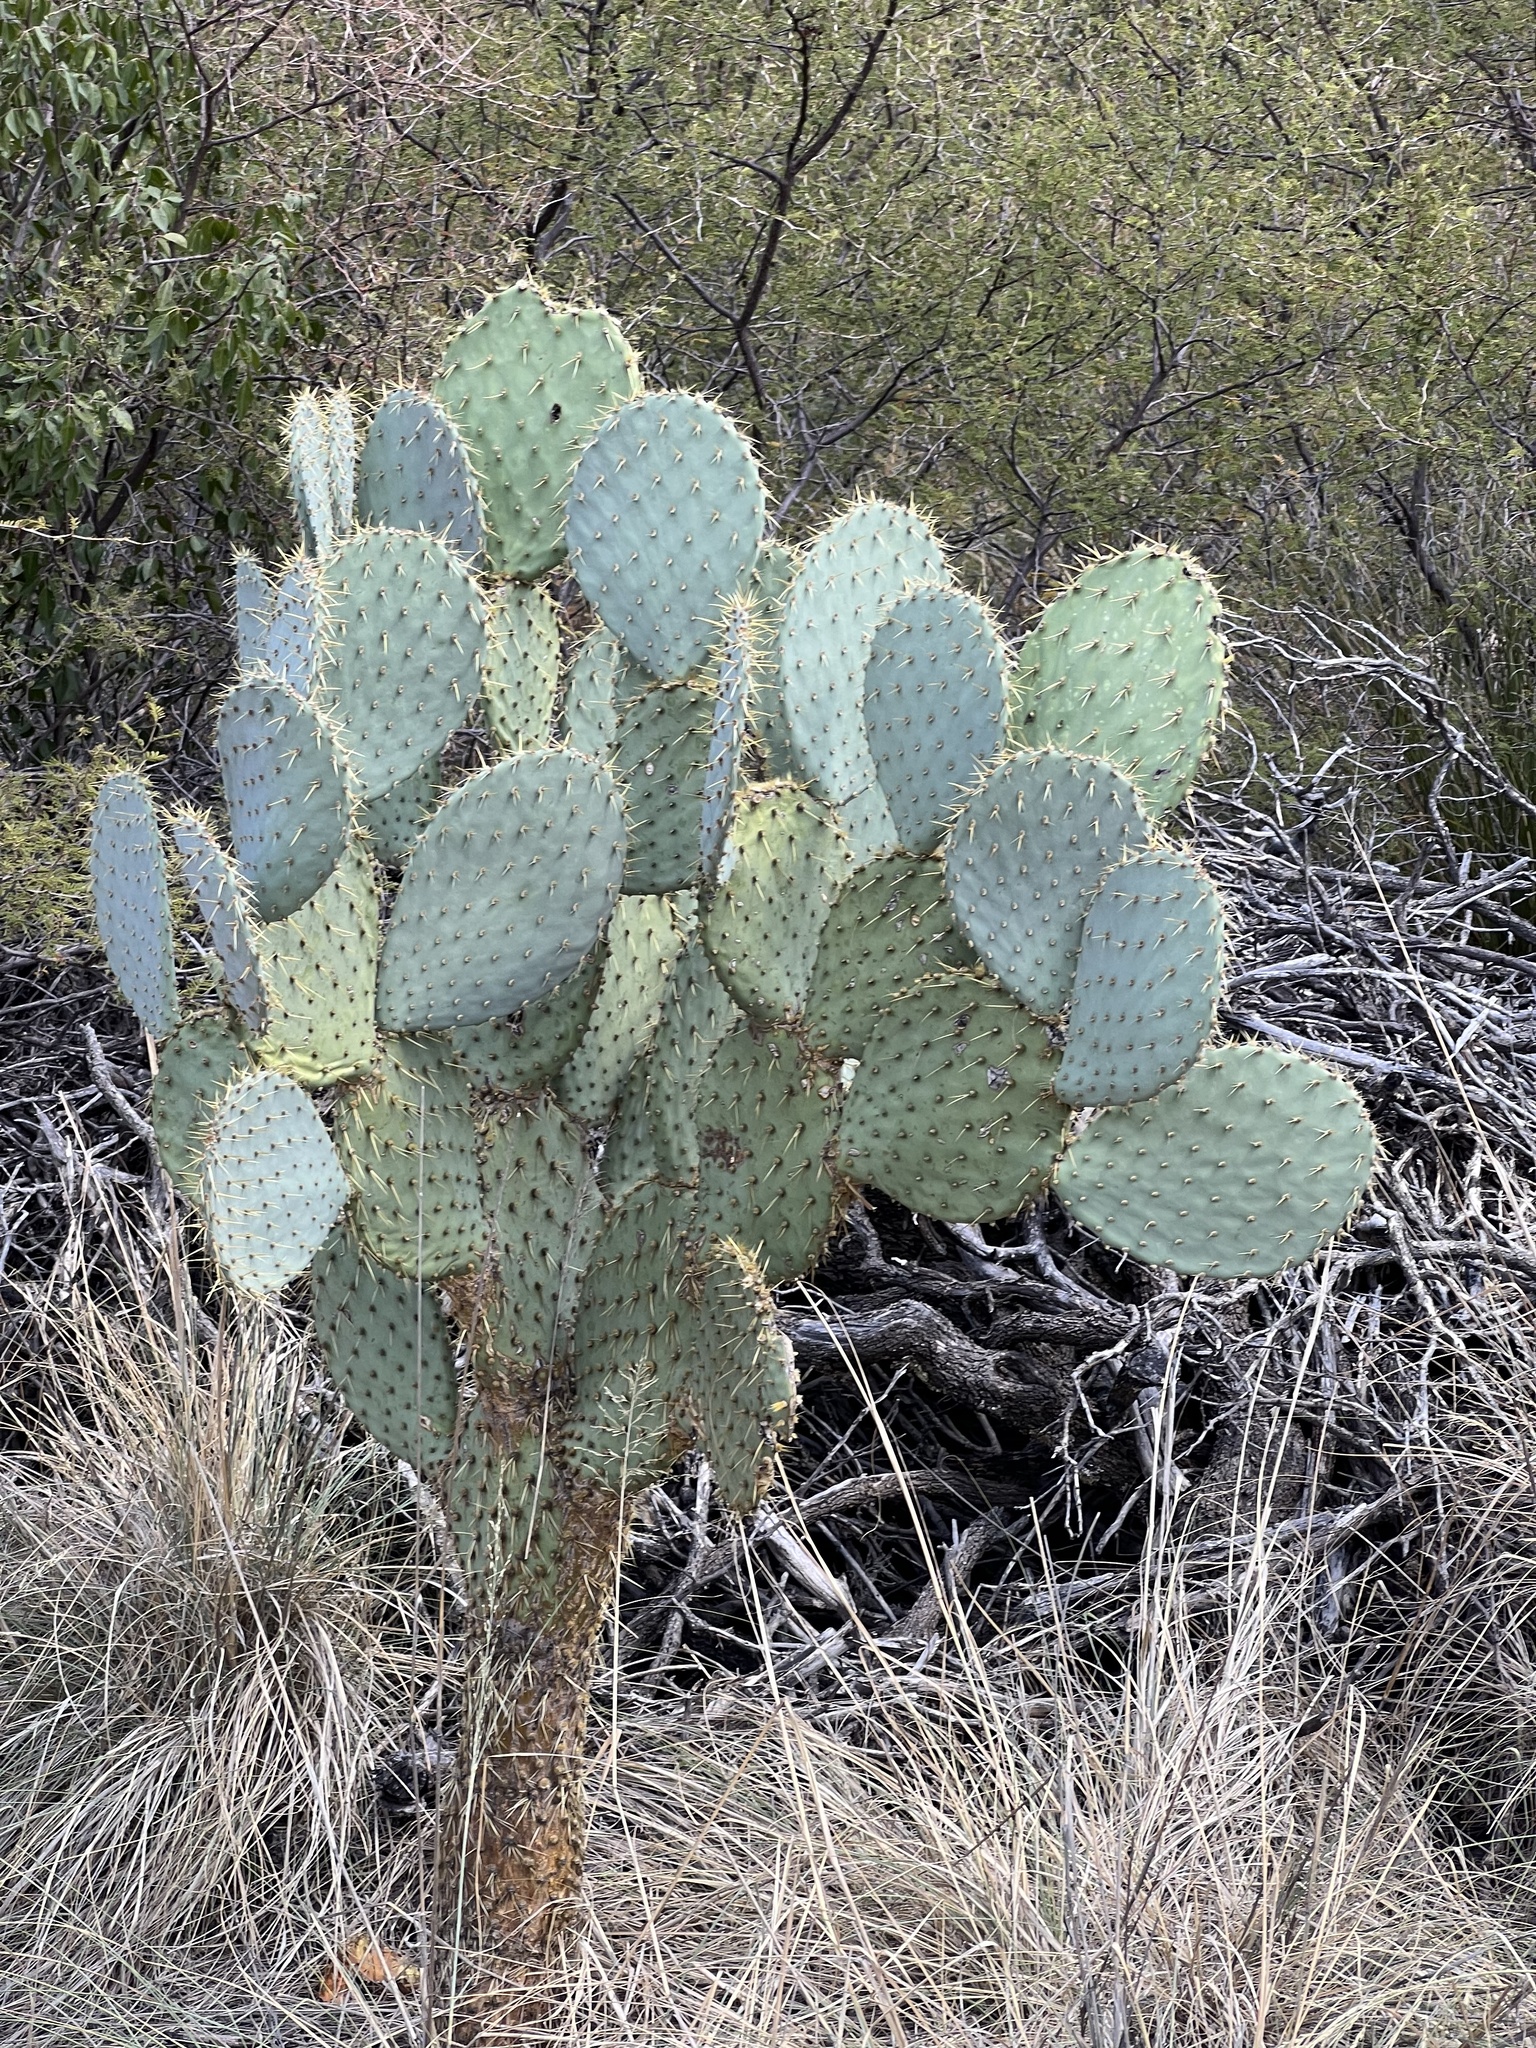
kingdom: Plantae
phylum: Tracheophyta
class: Magnoliopsida
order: Caryophyllales
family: Cactaceae
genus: Opuntia
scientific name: Opuntia chlorotica
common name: Dollar-joint prickly-pear
